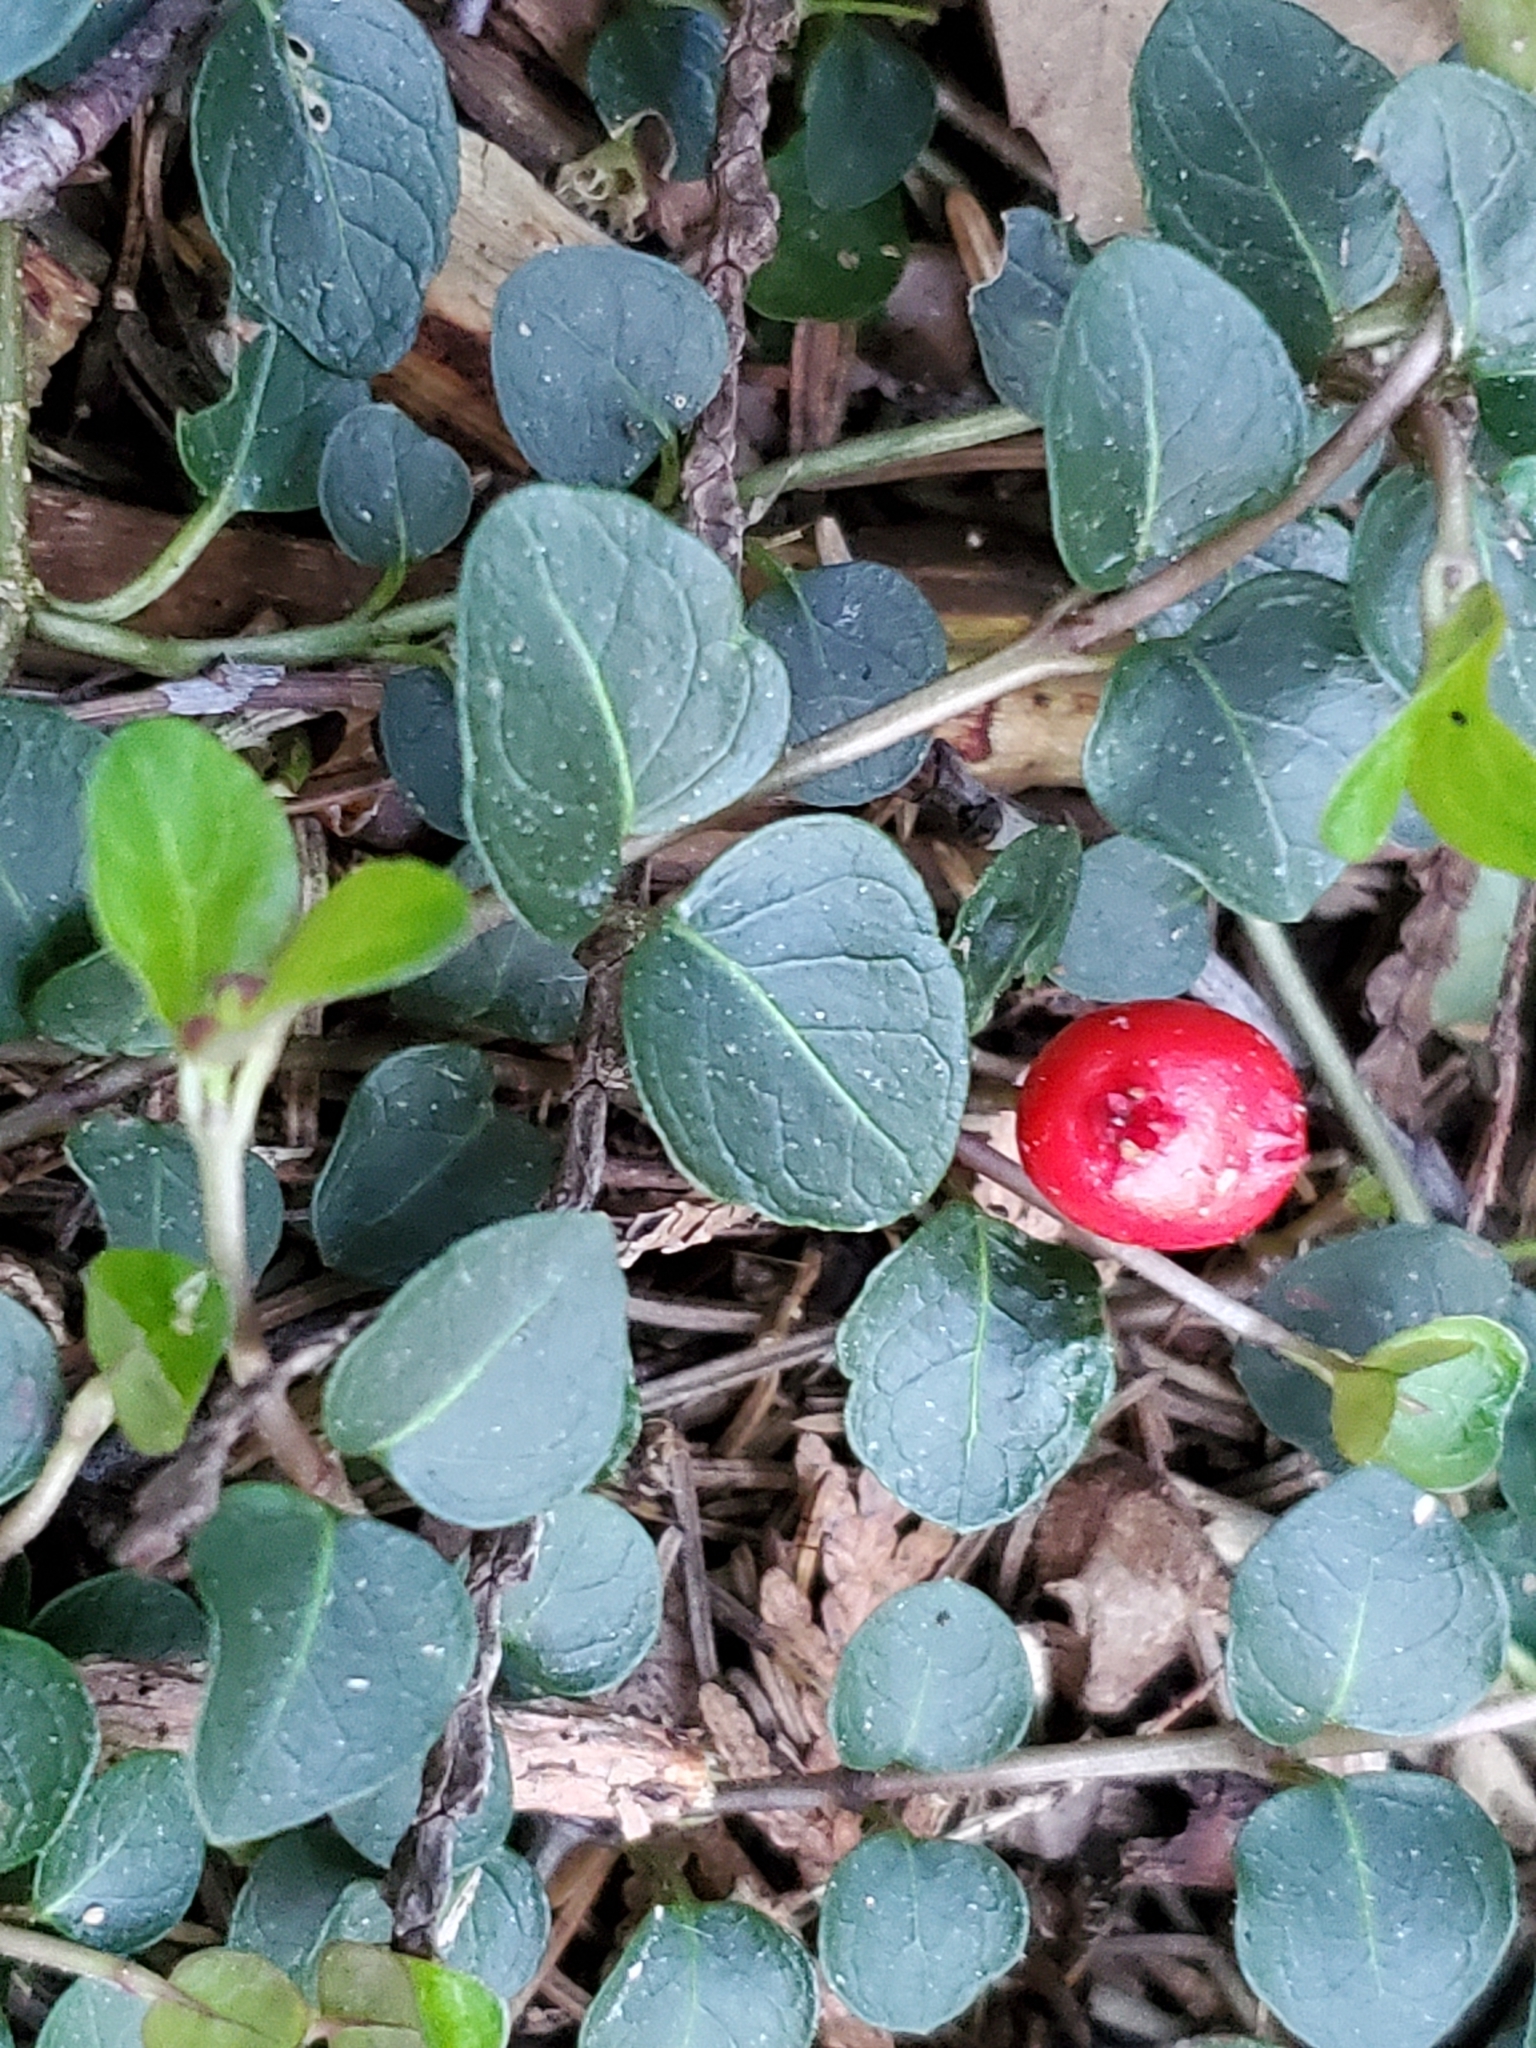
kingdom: Plantae
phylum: Tracheophyta
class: Magnoliopsida
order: Gentianales
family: Rubiaceae
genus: Mitchella
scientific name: Mitchella repens
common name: Partridge-berry
